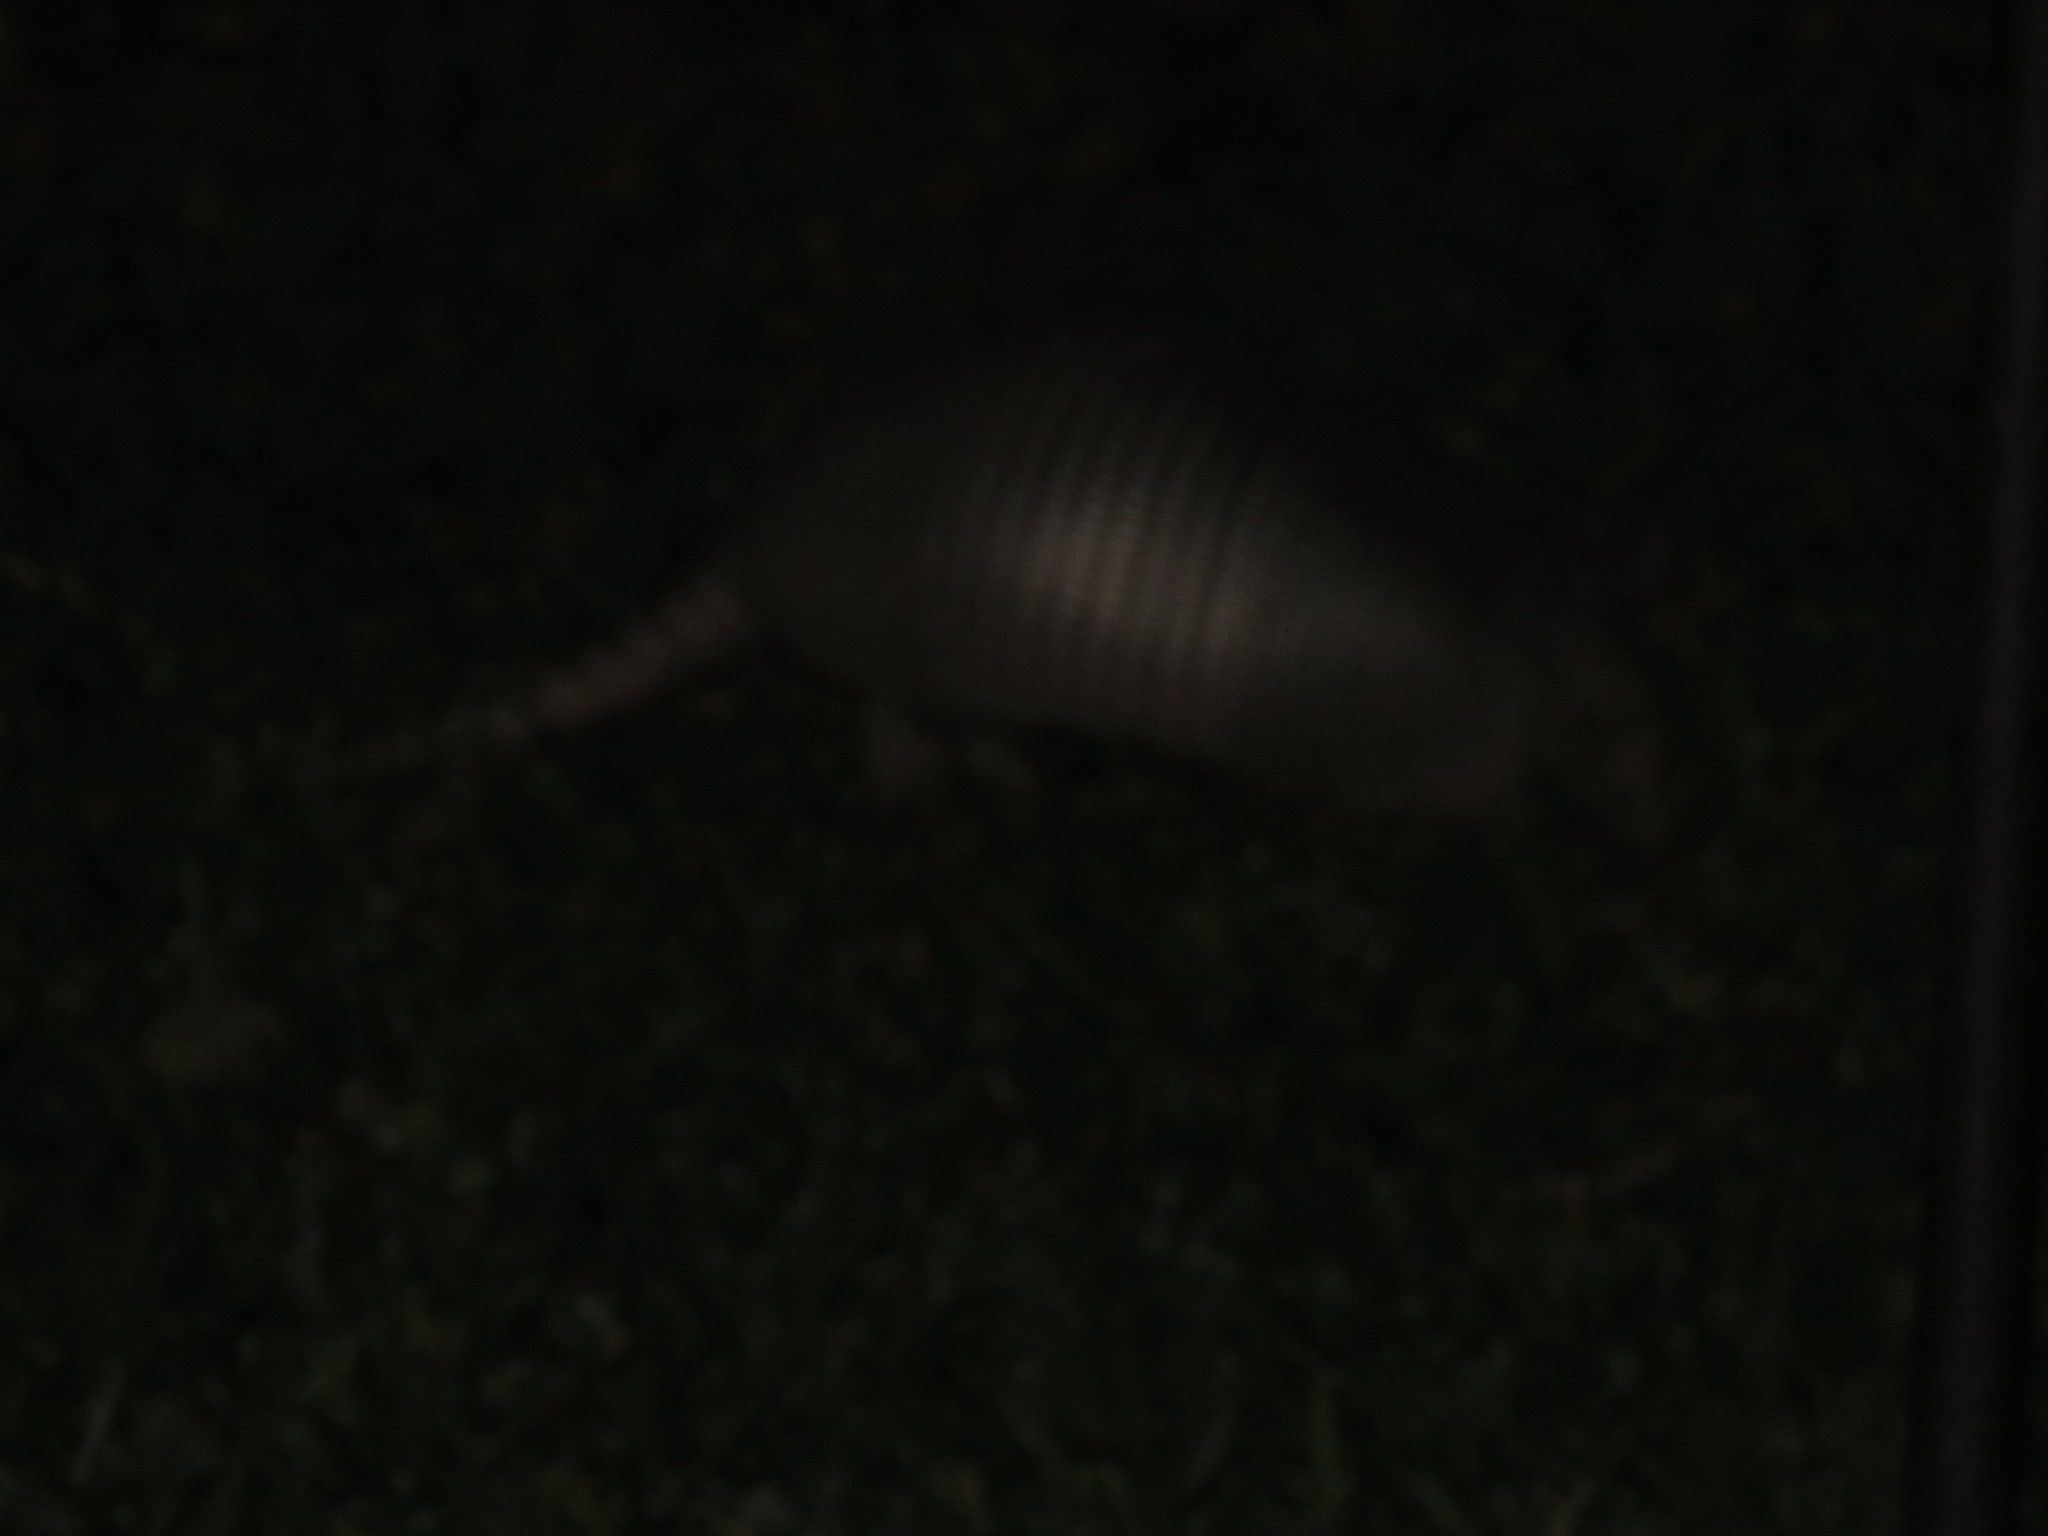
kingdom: Animalia
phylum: Chordata
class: Mammalia
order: Cingulata
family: Dasypodidae
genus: Dasypus
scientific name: Dasypus novemcinctus
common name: Nine-banded armadillo
